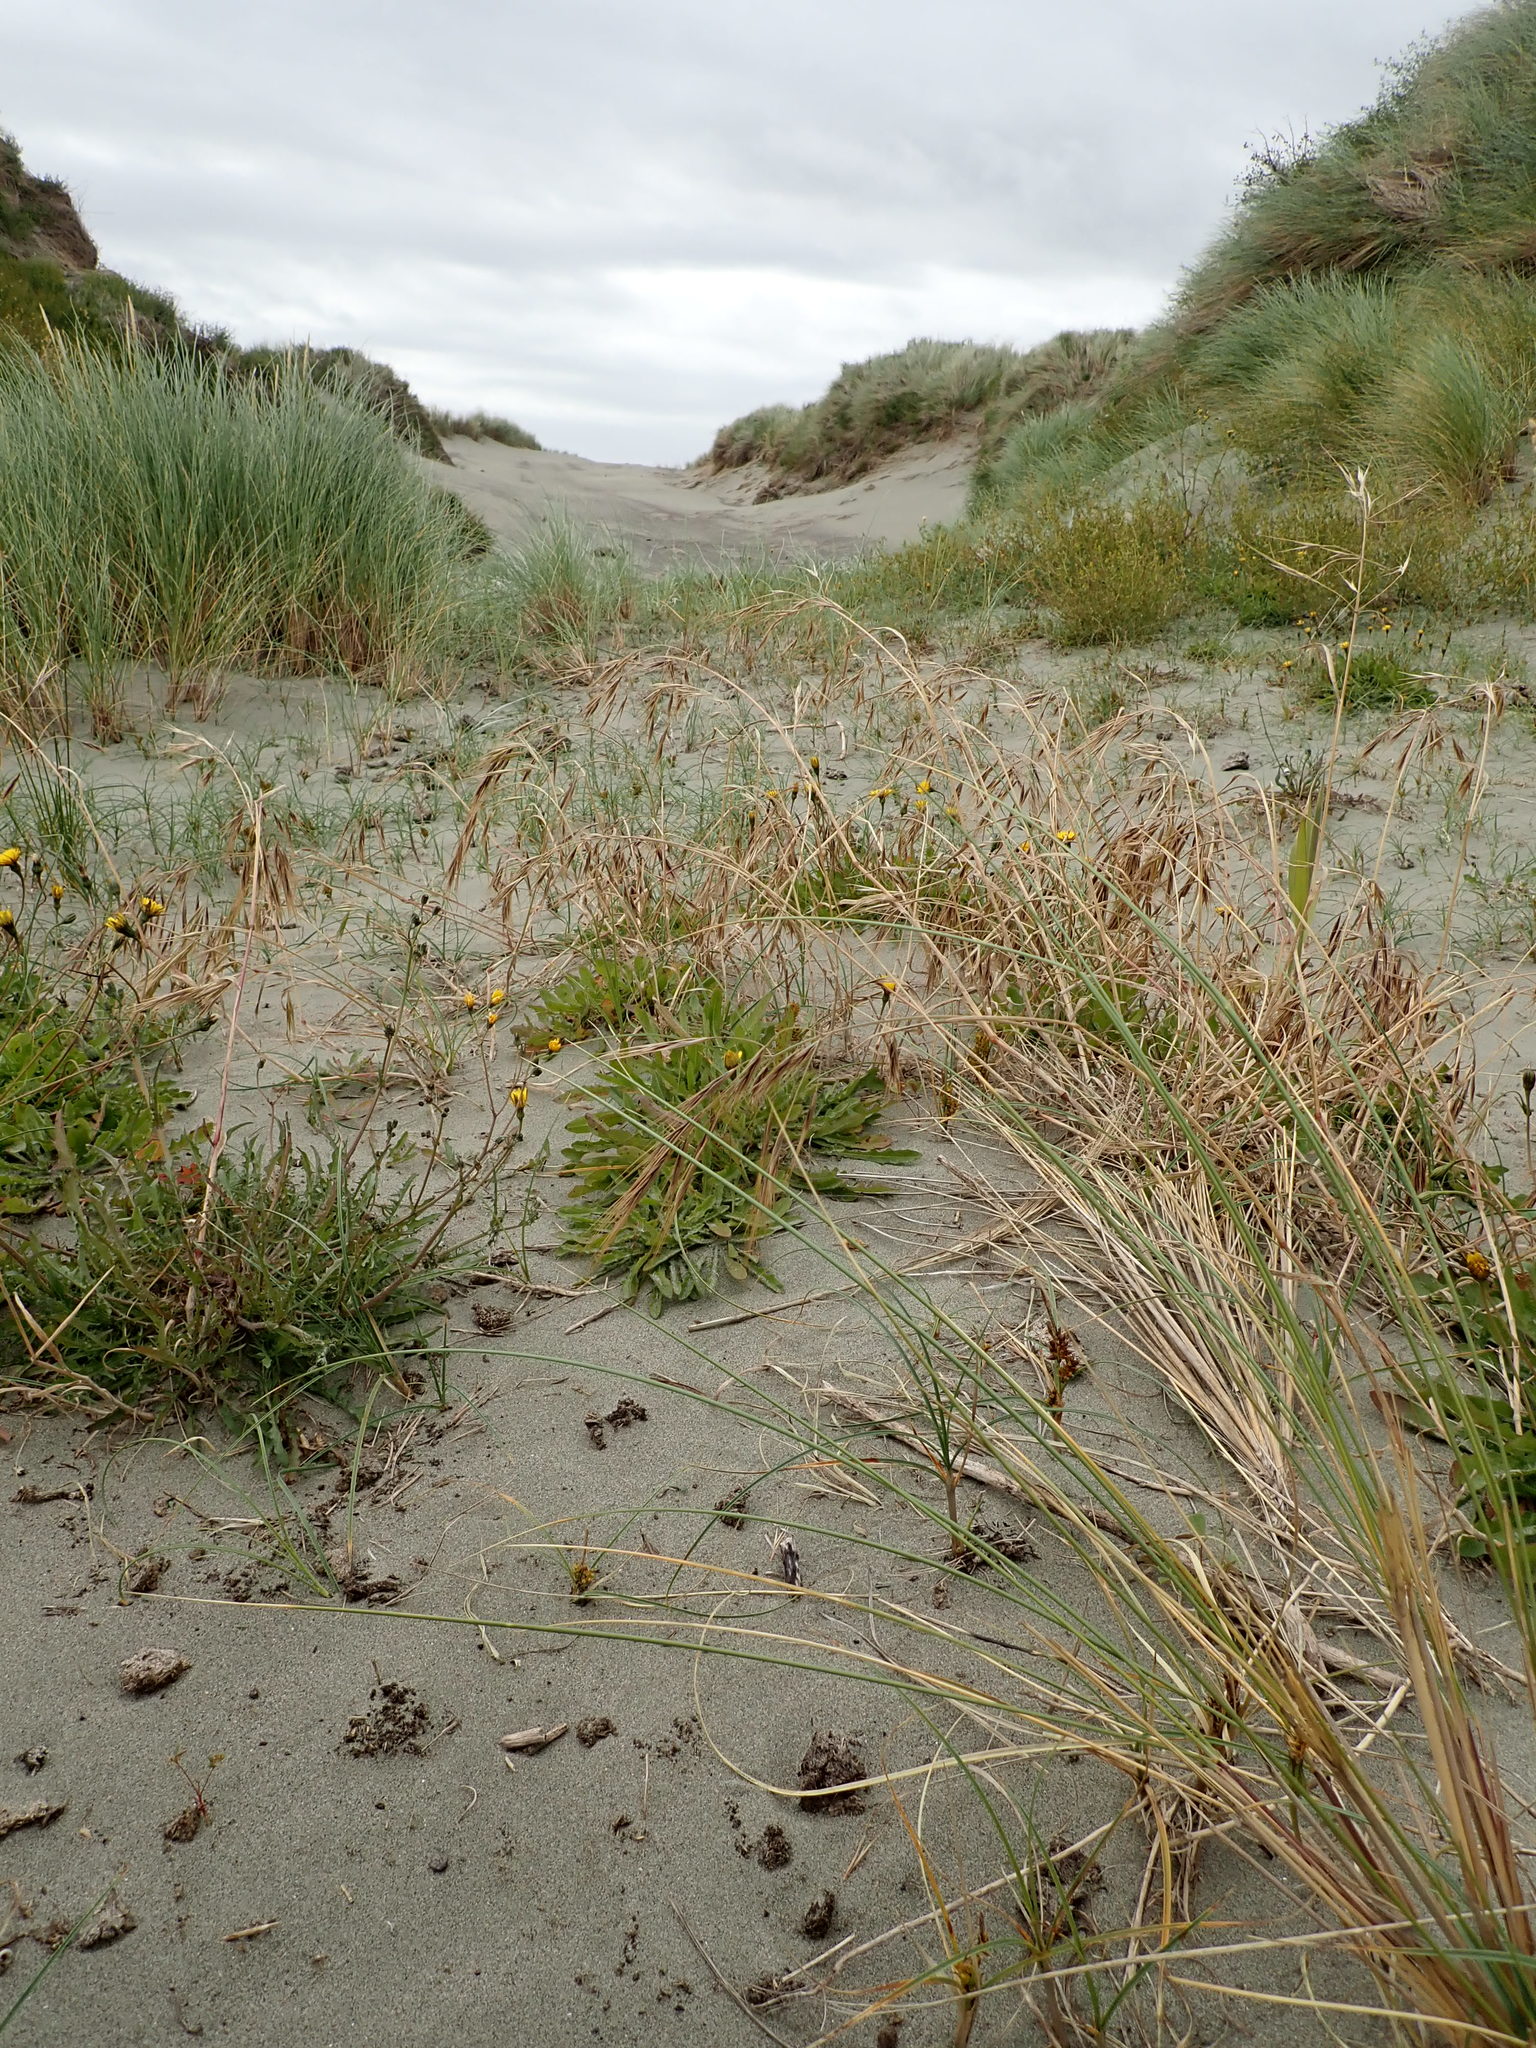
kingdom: Plantae
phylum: Tracheophyta
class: Liliopsida
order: Poales
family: Poaceae
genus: Bromus
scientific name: Bromus diandrus
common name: Ripgut brome
